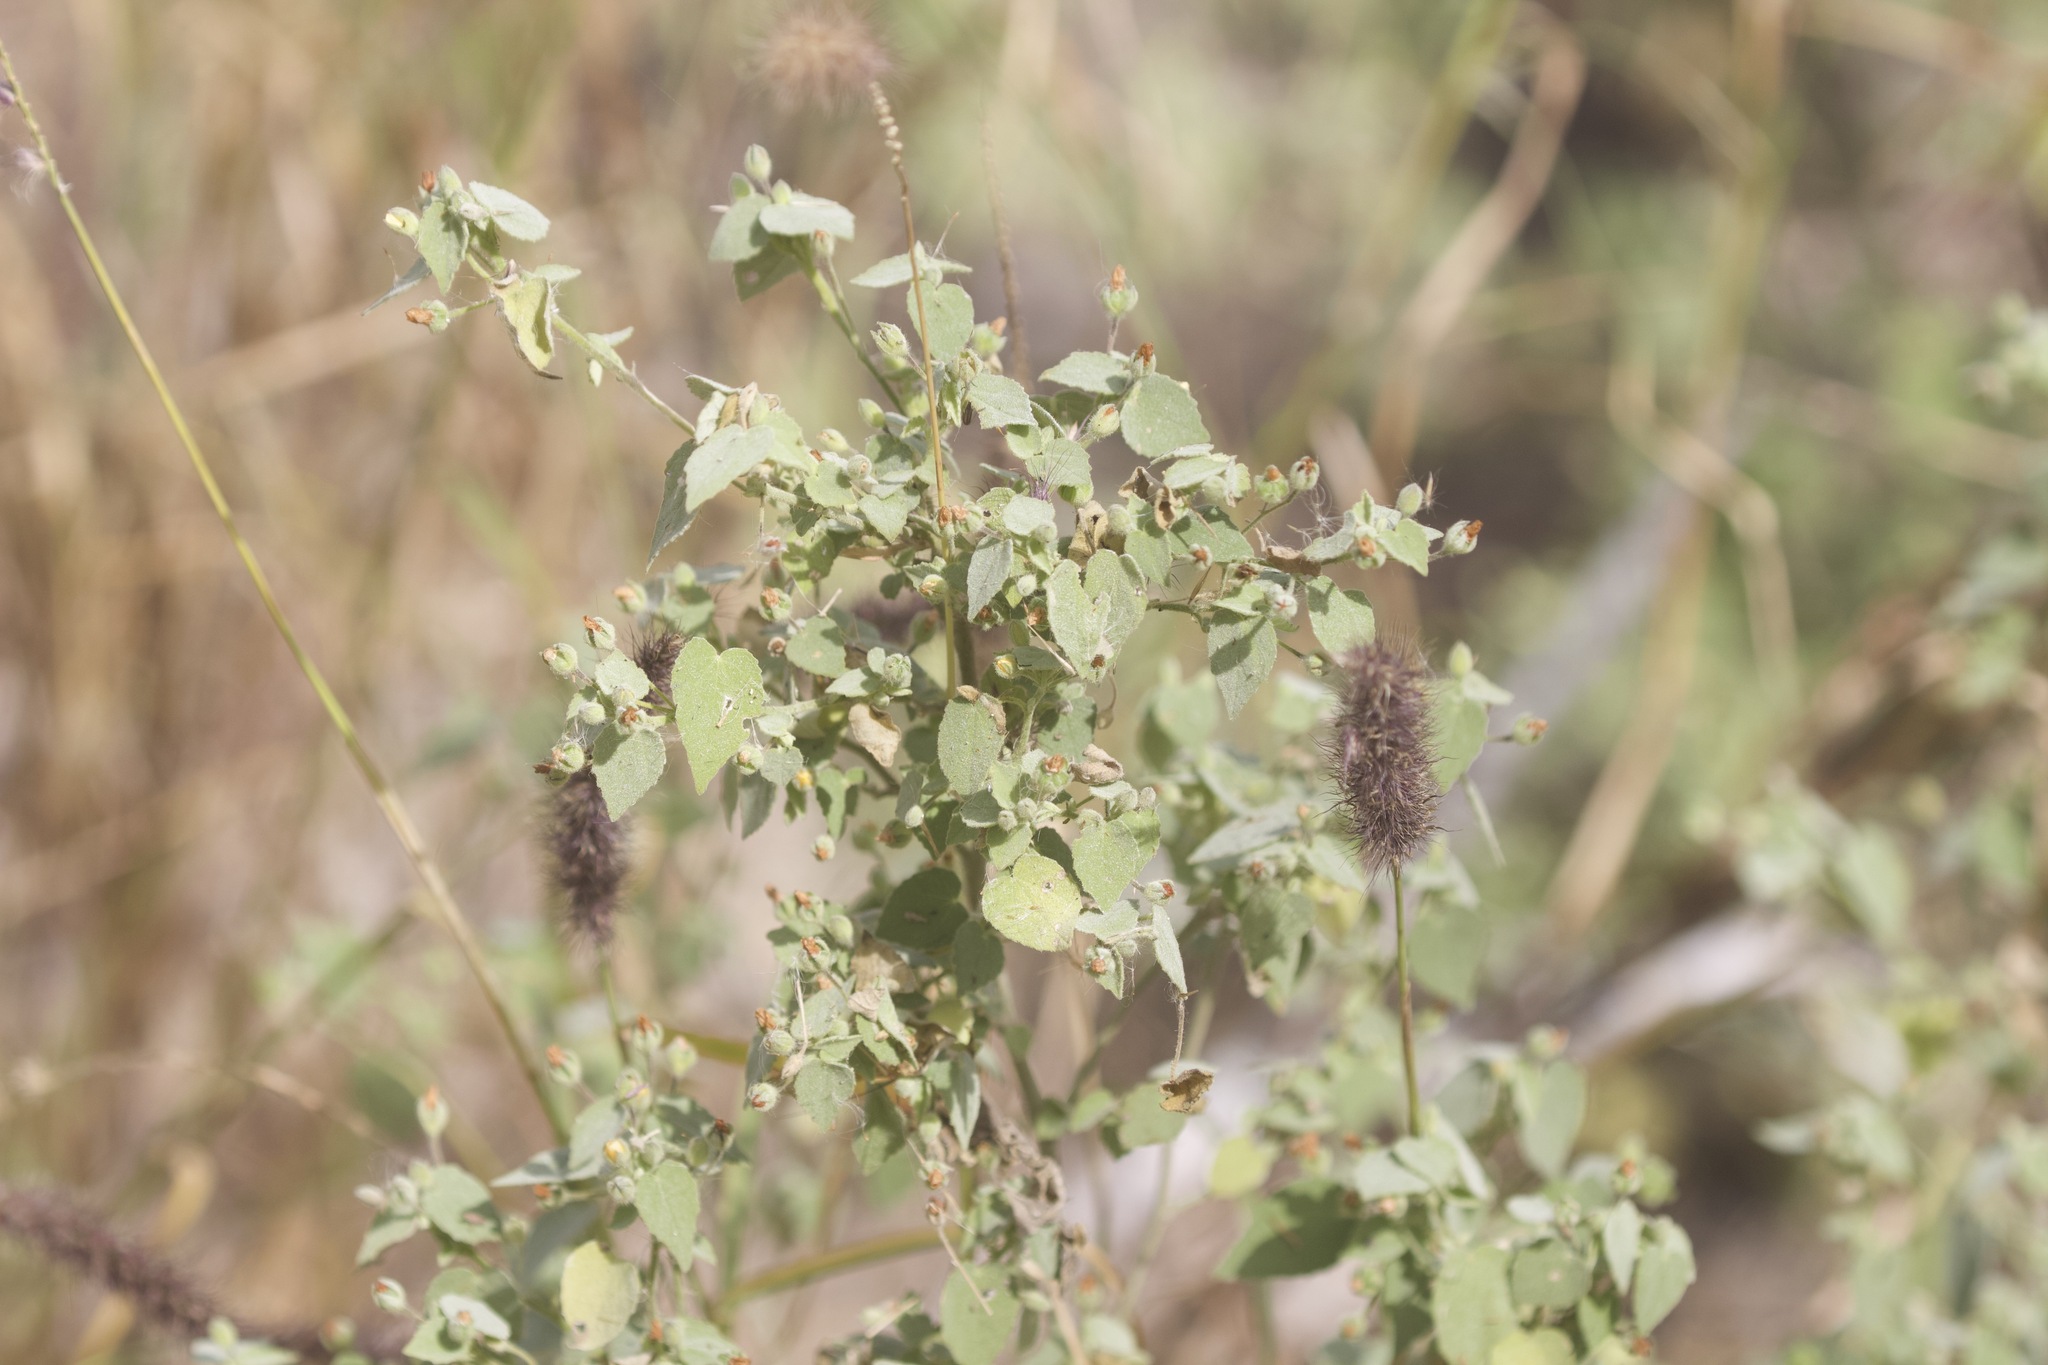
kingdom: Plantae
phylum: Tracheophyta
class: Magnoliopsida
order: Malvales
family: Malvaceae
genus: Abutilon
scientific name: Abutilon viscosum
